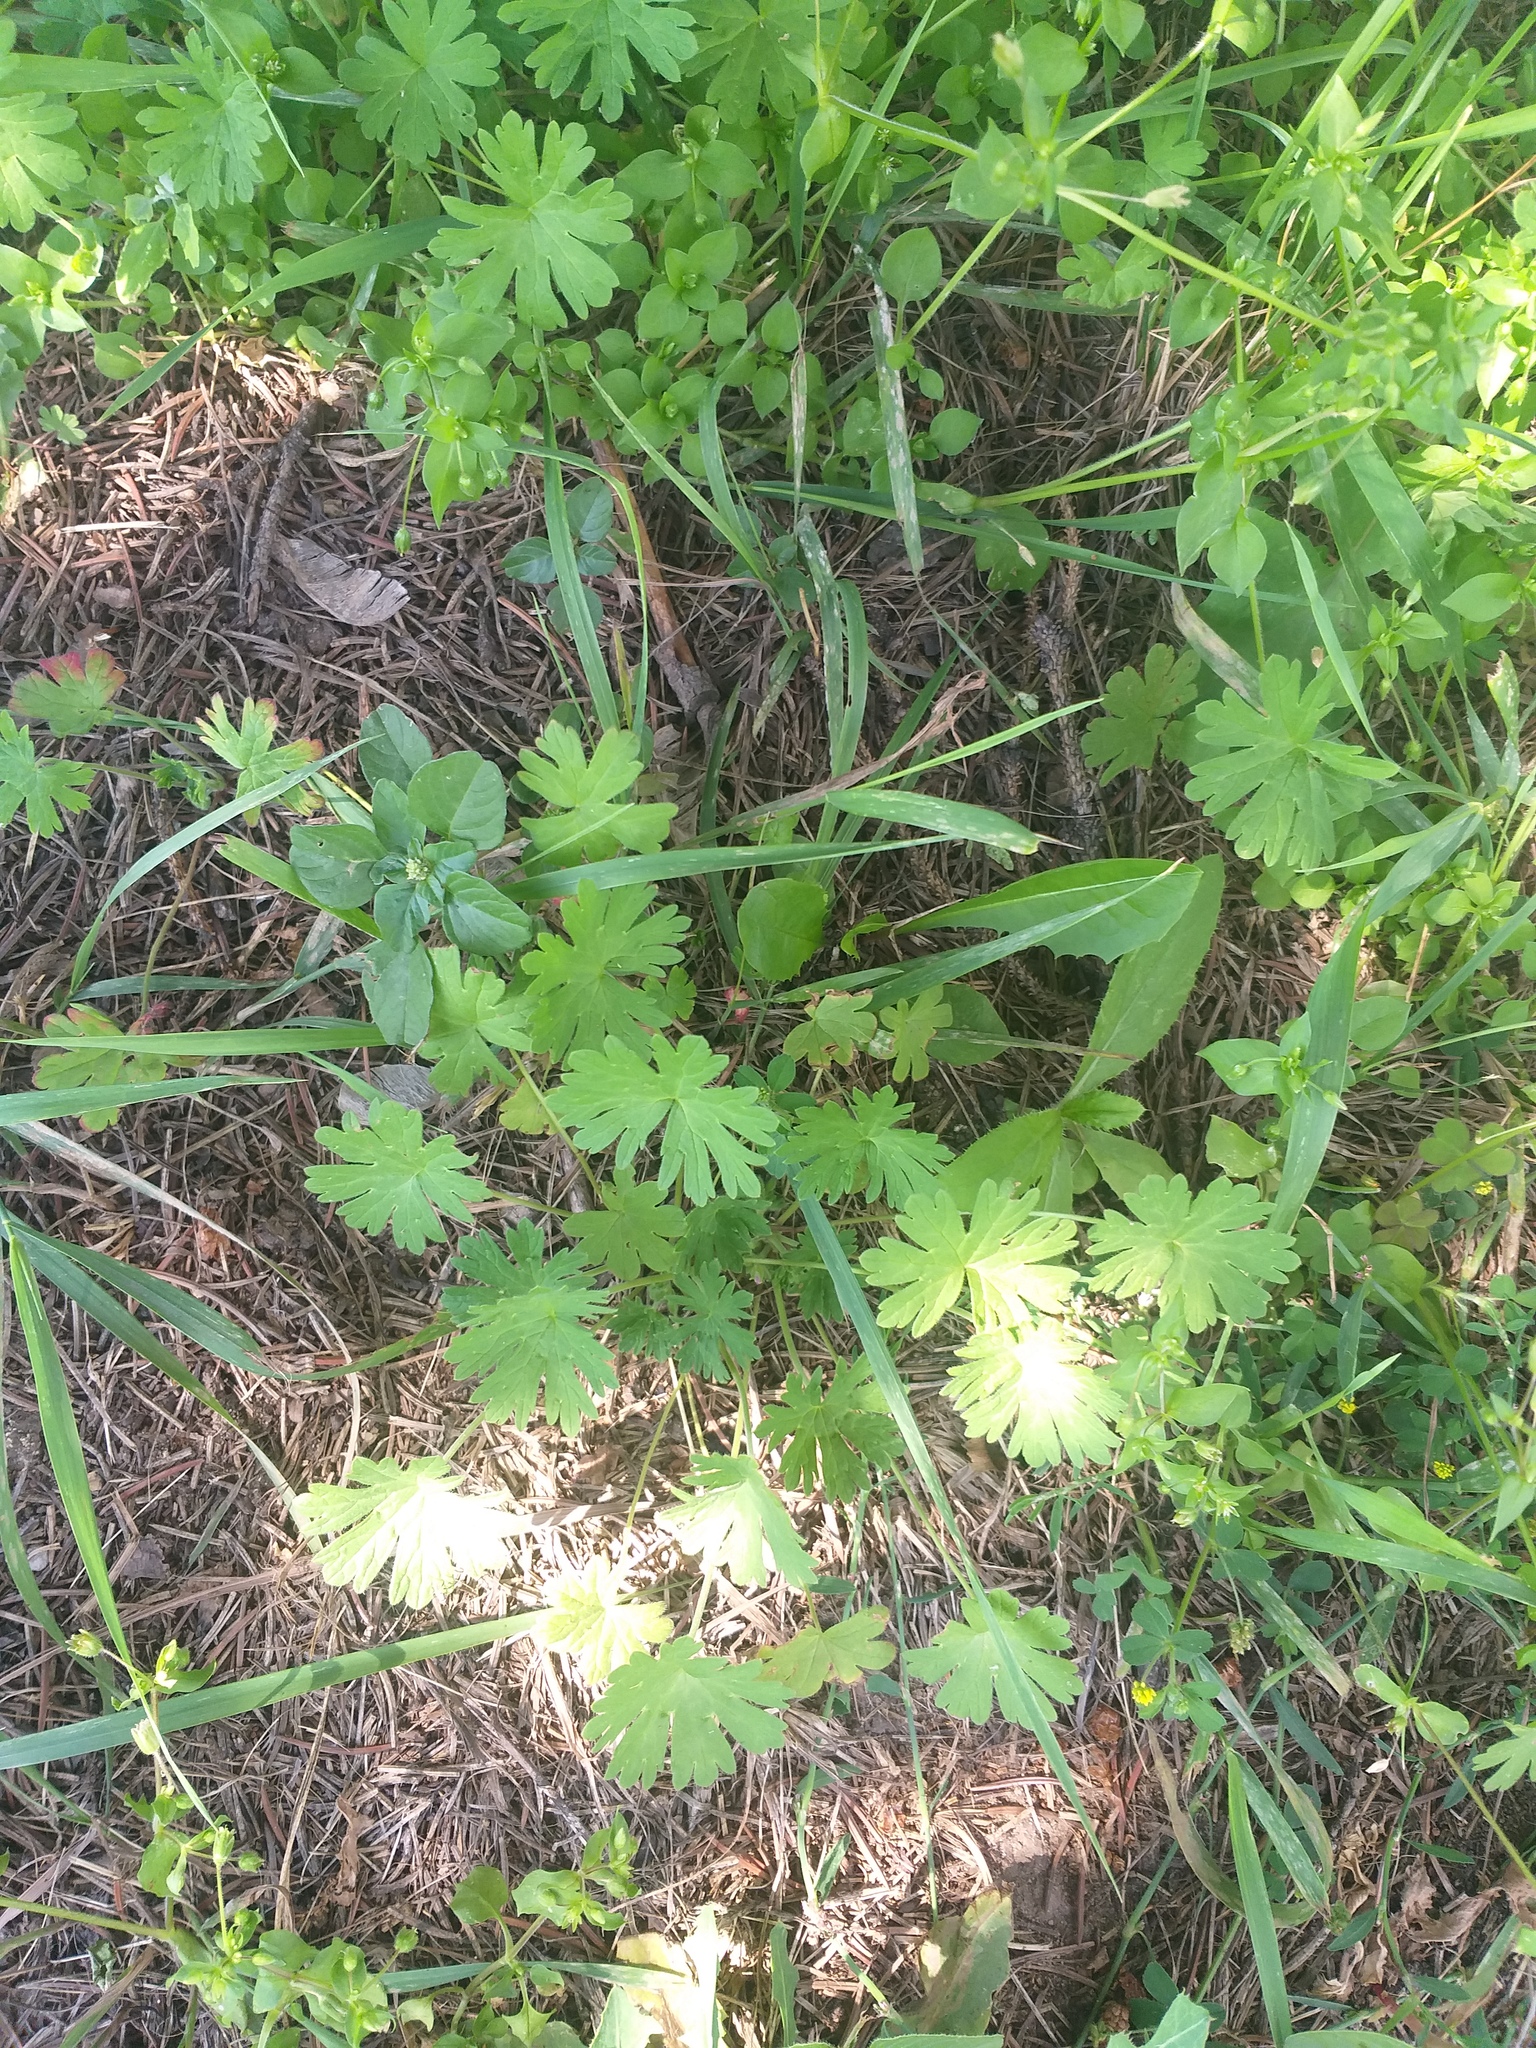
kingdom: Plantae
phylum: Tracheophyta
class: Magnoliopsida
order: Geraniales
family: Geraniaceae
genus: Geranium
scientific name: Geranium pusillum
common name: Small geranium
